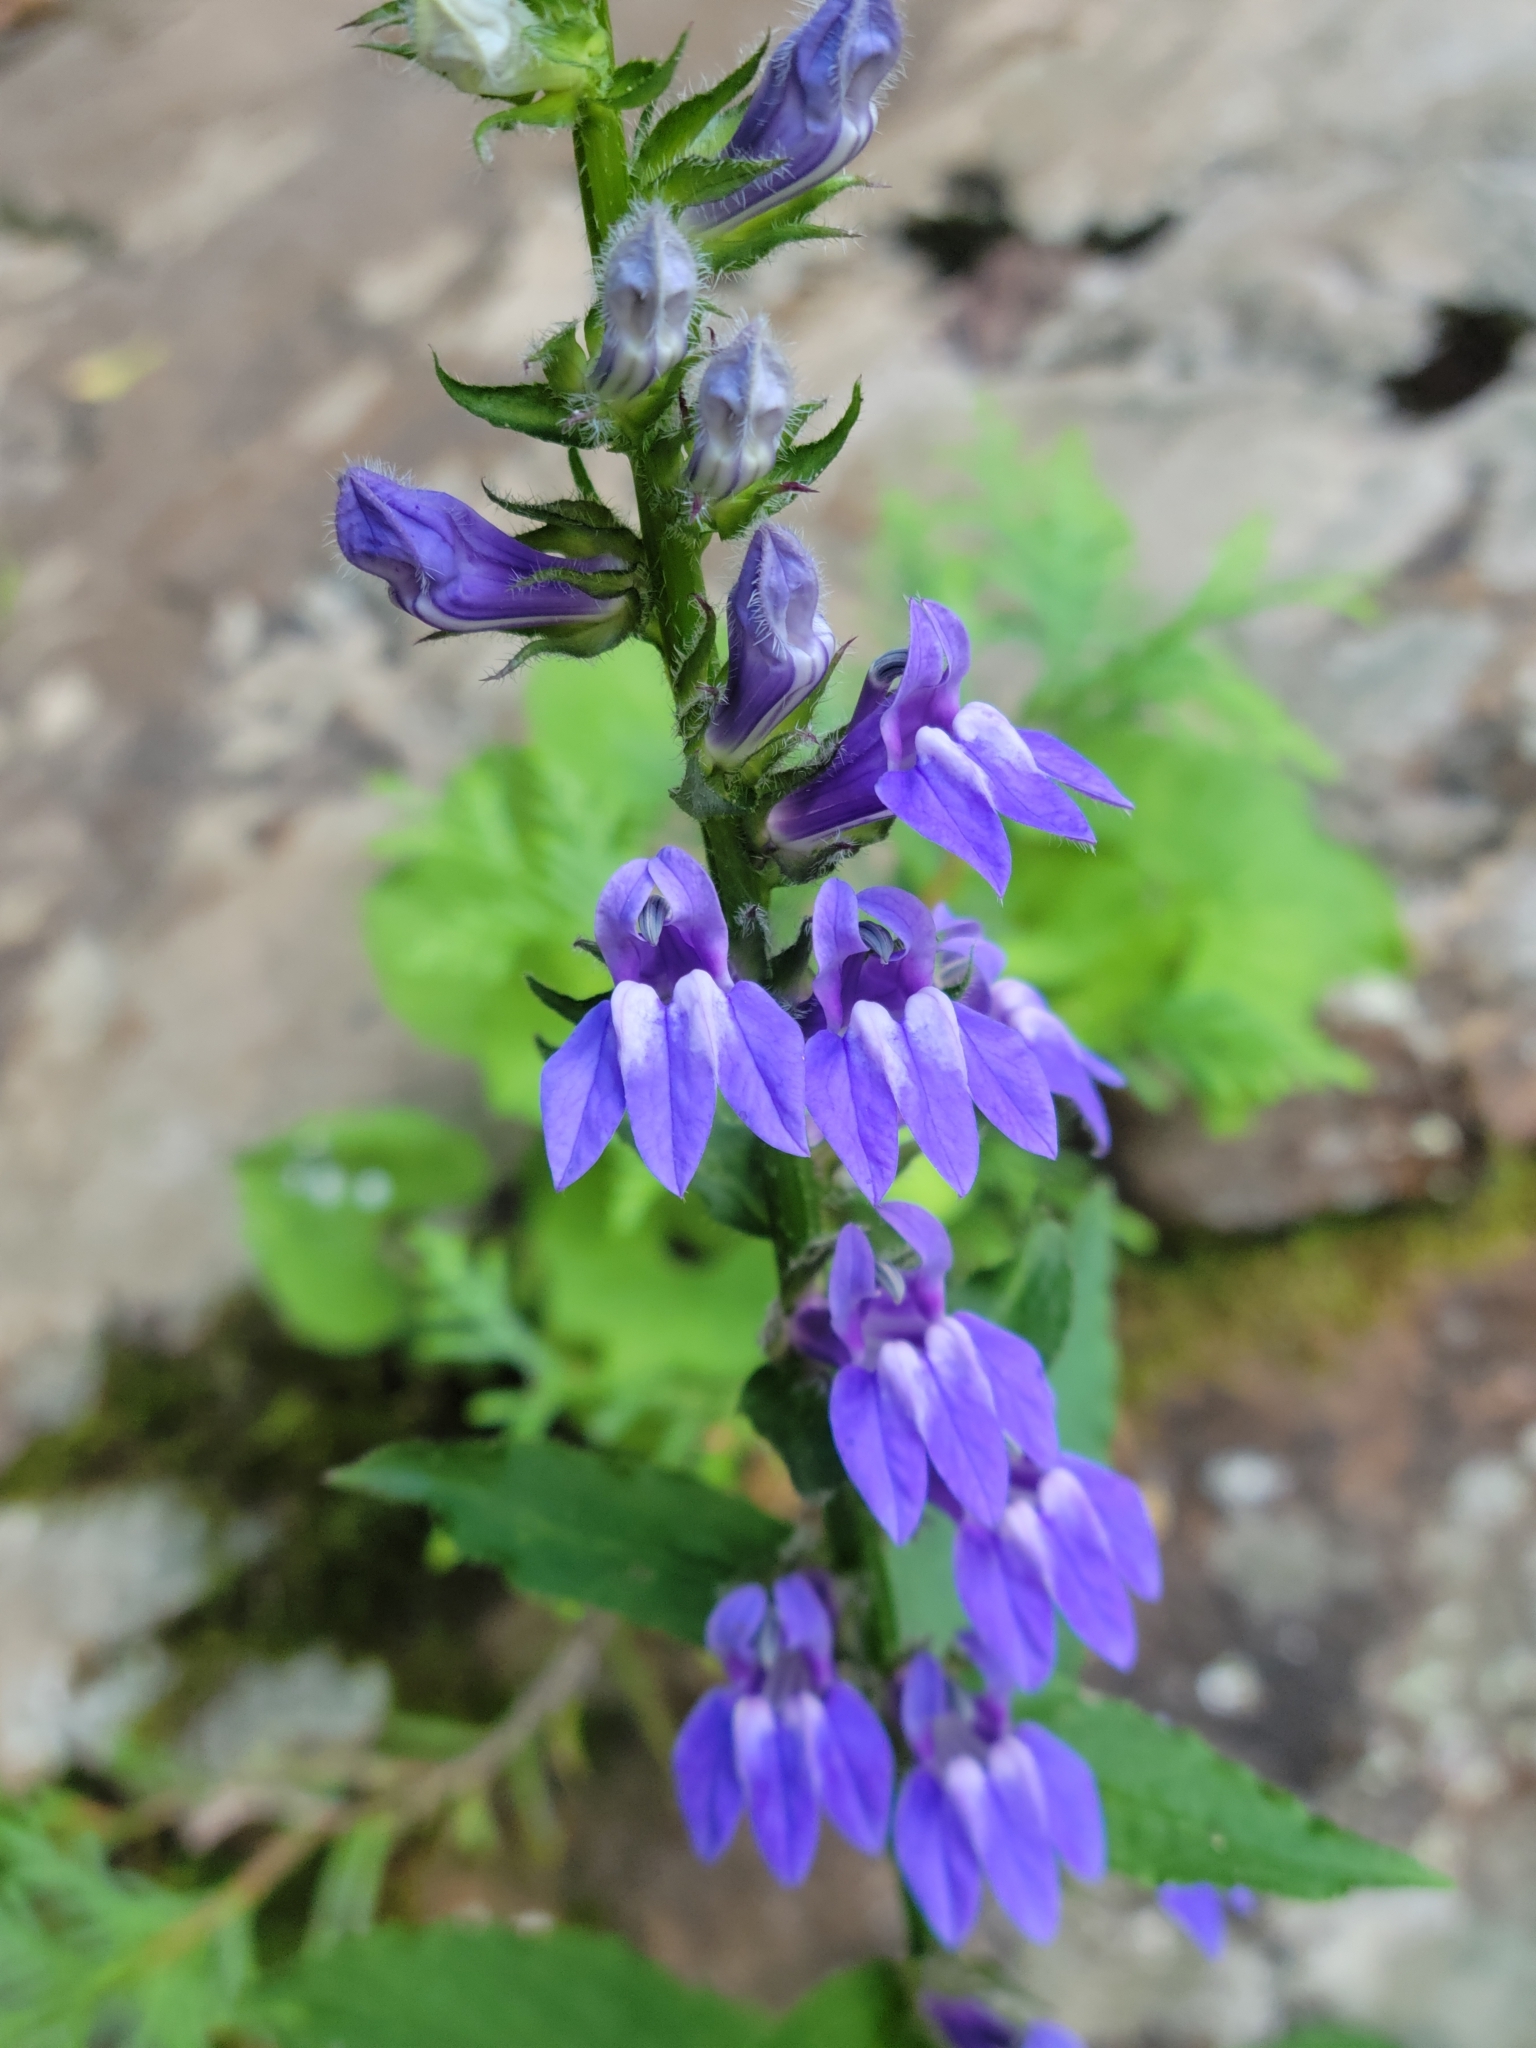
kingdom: Plantae
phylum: Tracheophyta
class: Magnoliopsida
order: Asterales
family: Campanulaceae
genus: Lobelia
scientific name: Lobelia siphilitica
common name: Great lobelia
